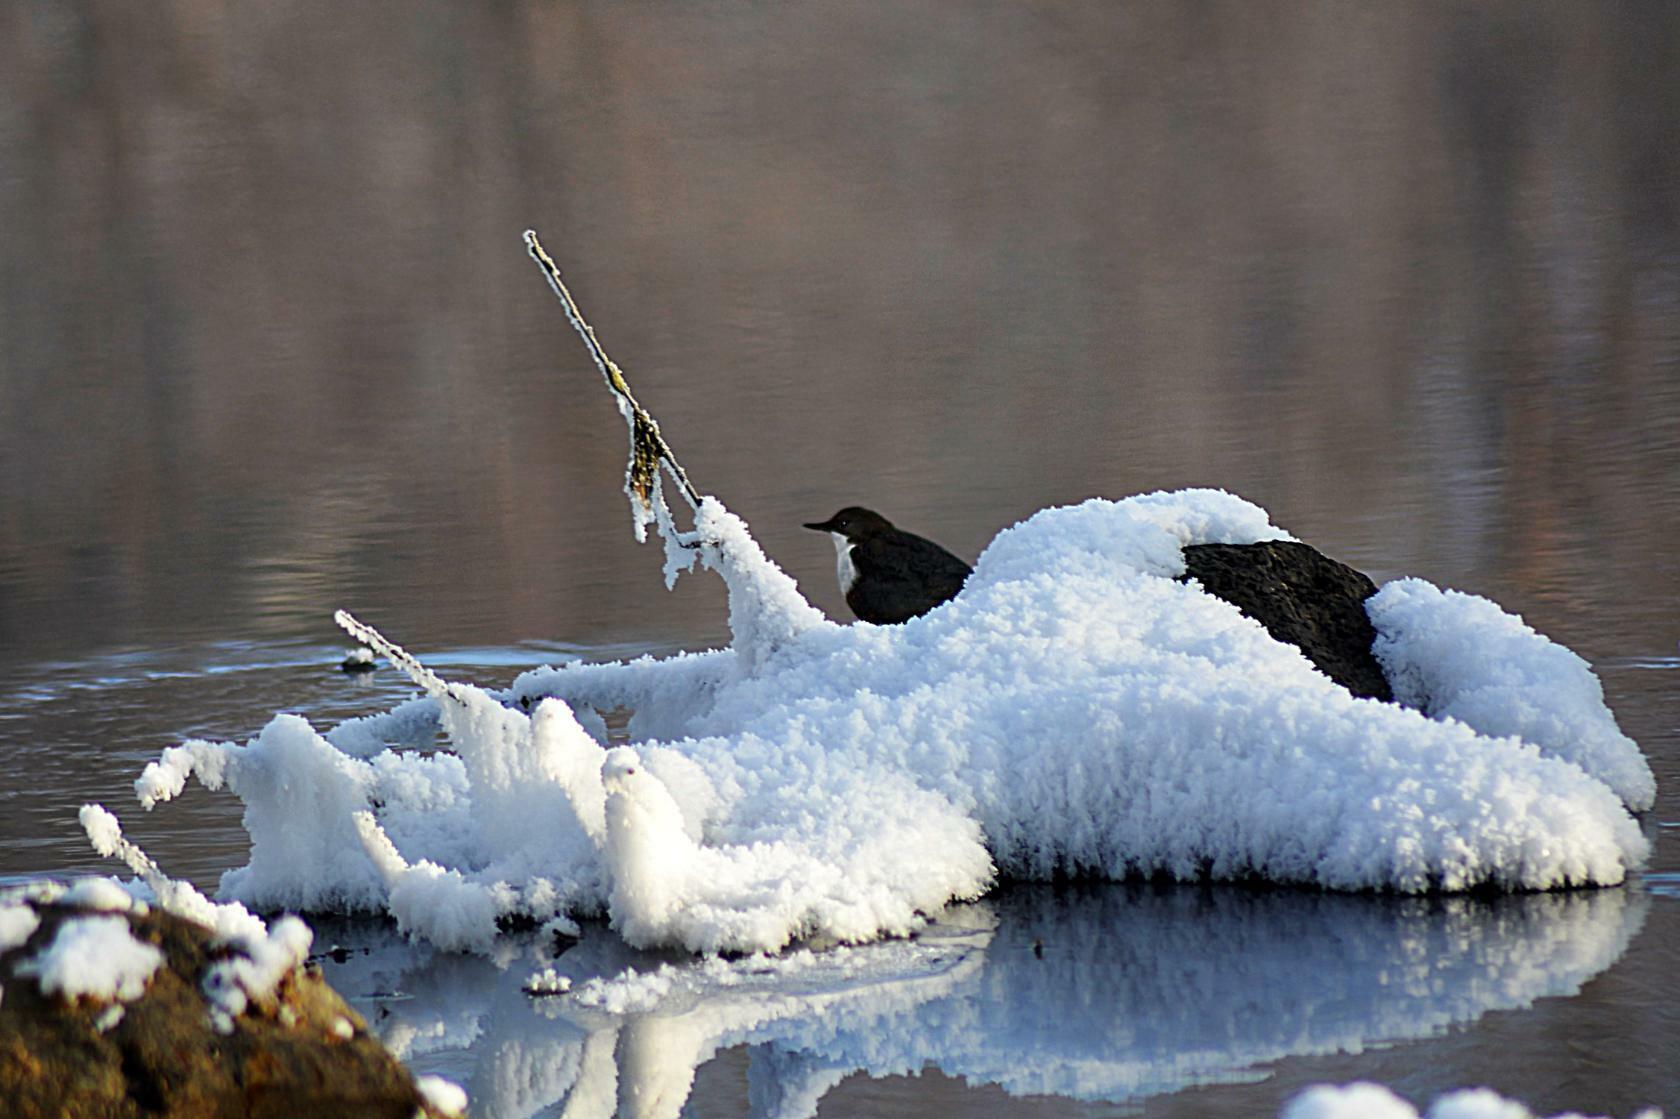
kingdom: Animalia
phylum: Chordata
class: Aves
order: Passeriformes
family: Cinclidae
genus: Cinclus
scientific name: Cinclus cinclus
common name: White-throated dipper
